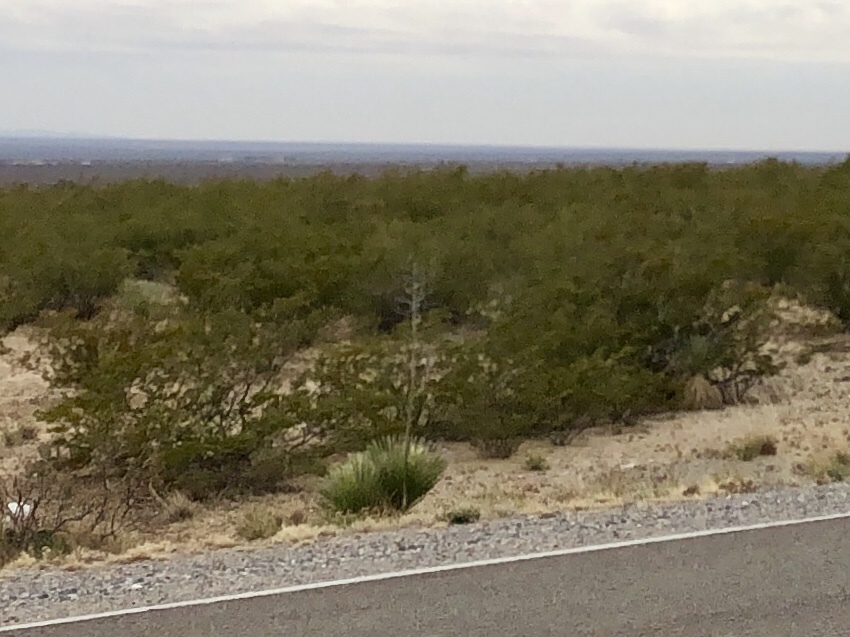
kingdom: Plantae
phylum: Tracheophyta
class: Magnoliopsida
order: Zygophyllales
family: Zygophyllaceae
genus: Larrea
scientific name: Larrea tridentata
